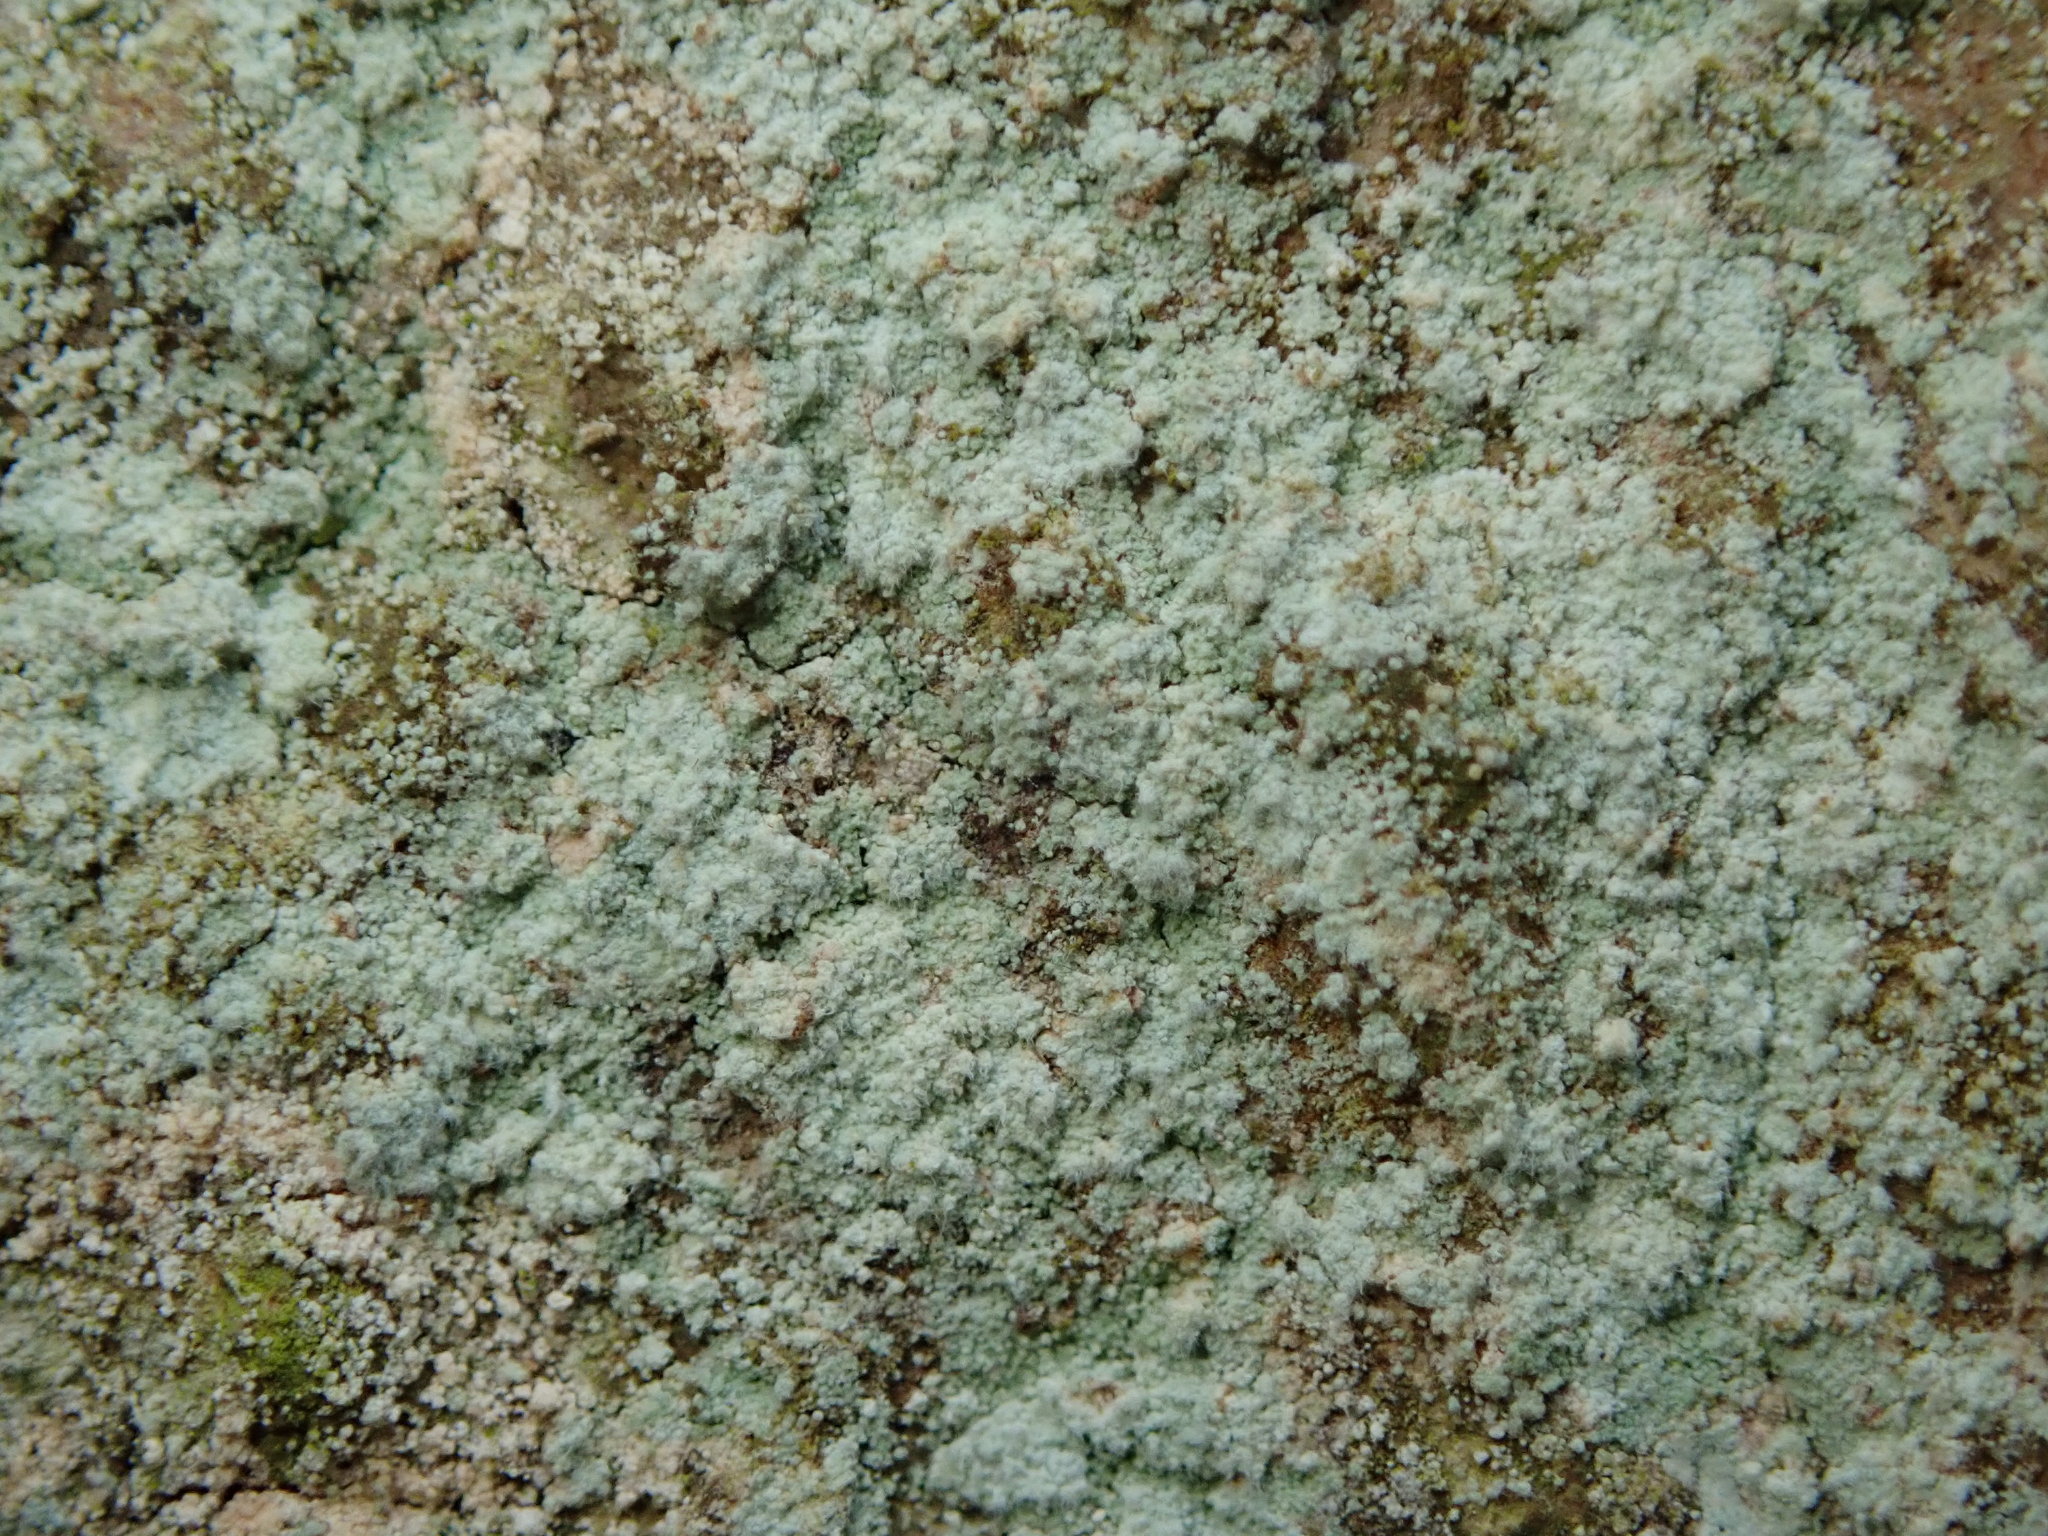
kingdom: Fungi
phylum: Ascomycota
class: Lecanoromycetes
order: Lecanorales
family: Stereocaulaceae
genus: Lepraria
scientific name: Lepraria lobificans
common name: Fluffy dust lichen
